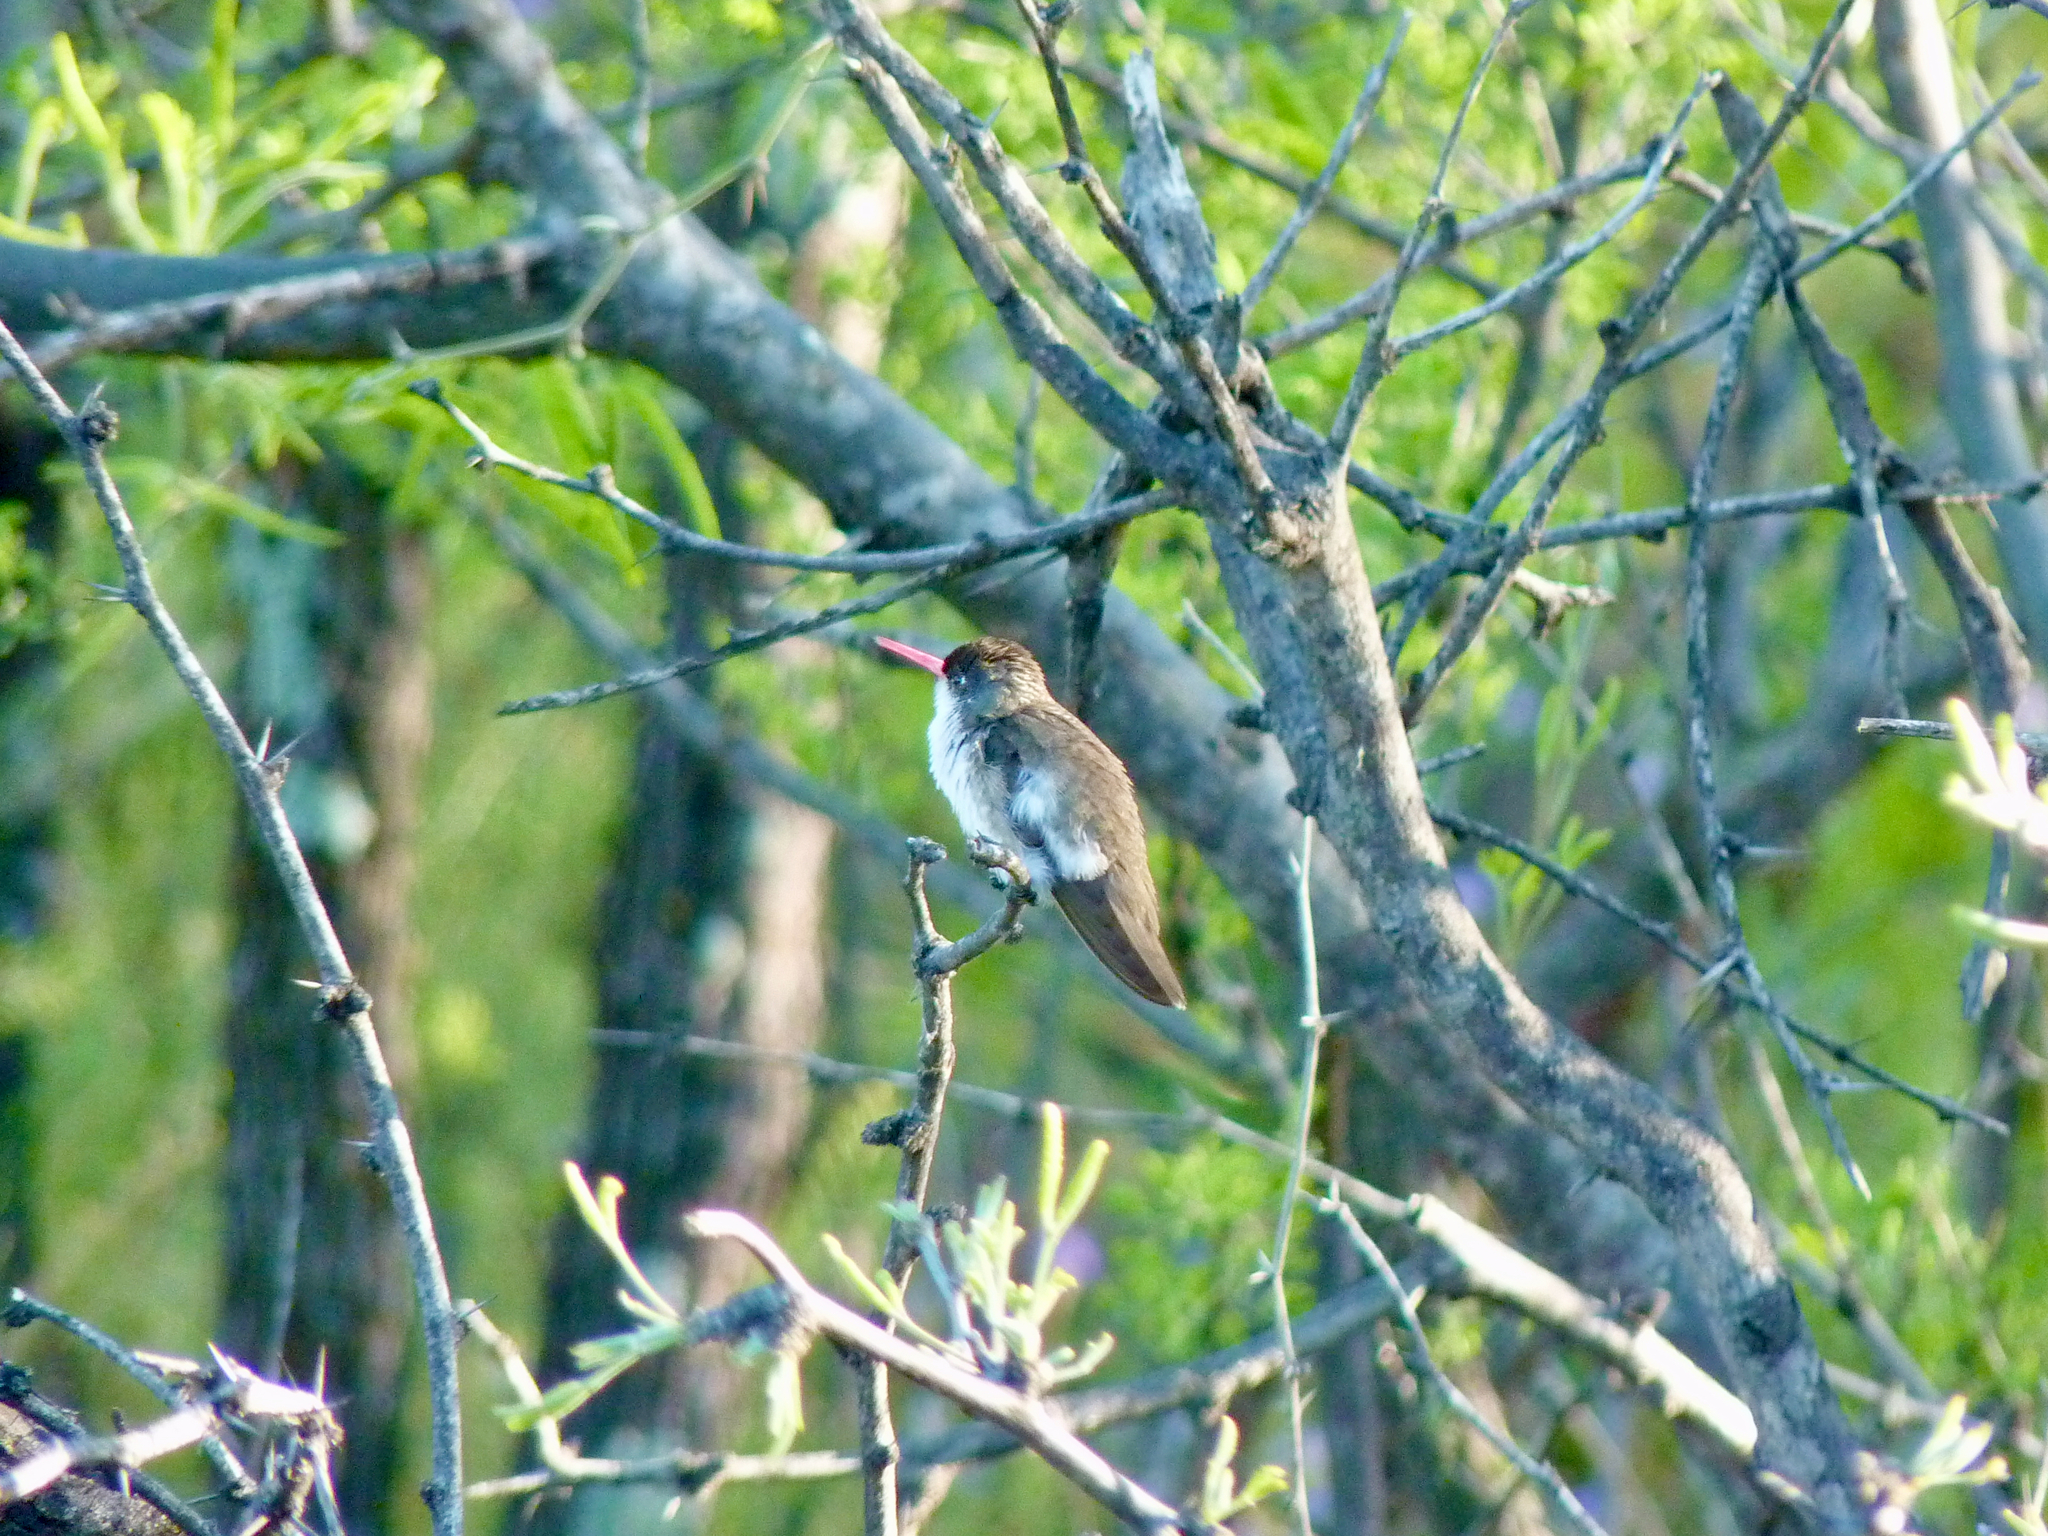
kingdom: Animalia
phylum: Chordata
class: Aves
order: Apodiformes
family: Trochilidae
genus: Leucolia
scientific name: Leucolia violiceps
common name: Violet-crowned hummingbird
